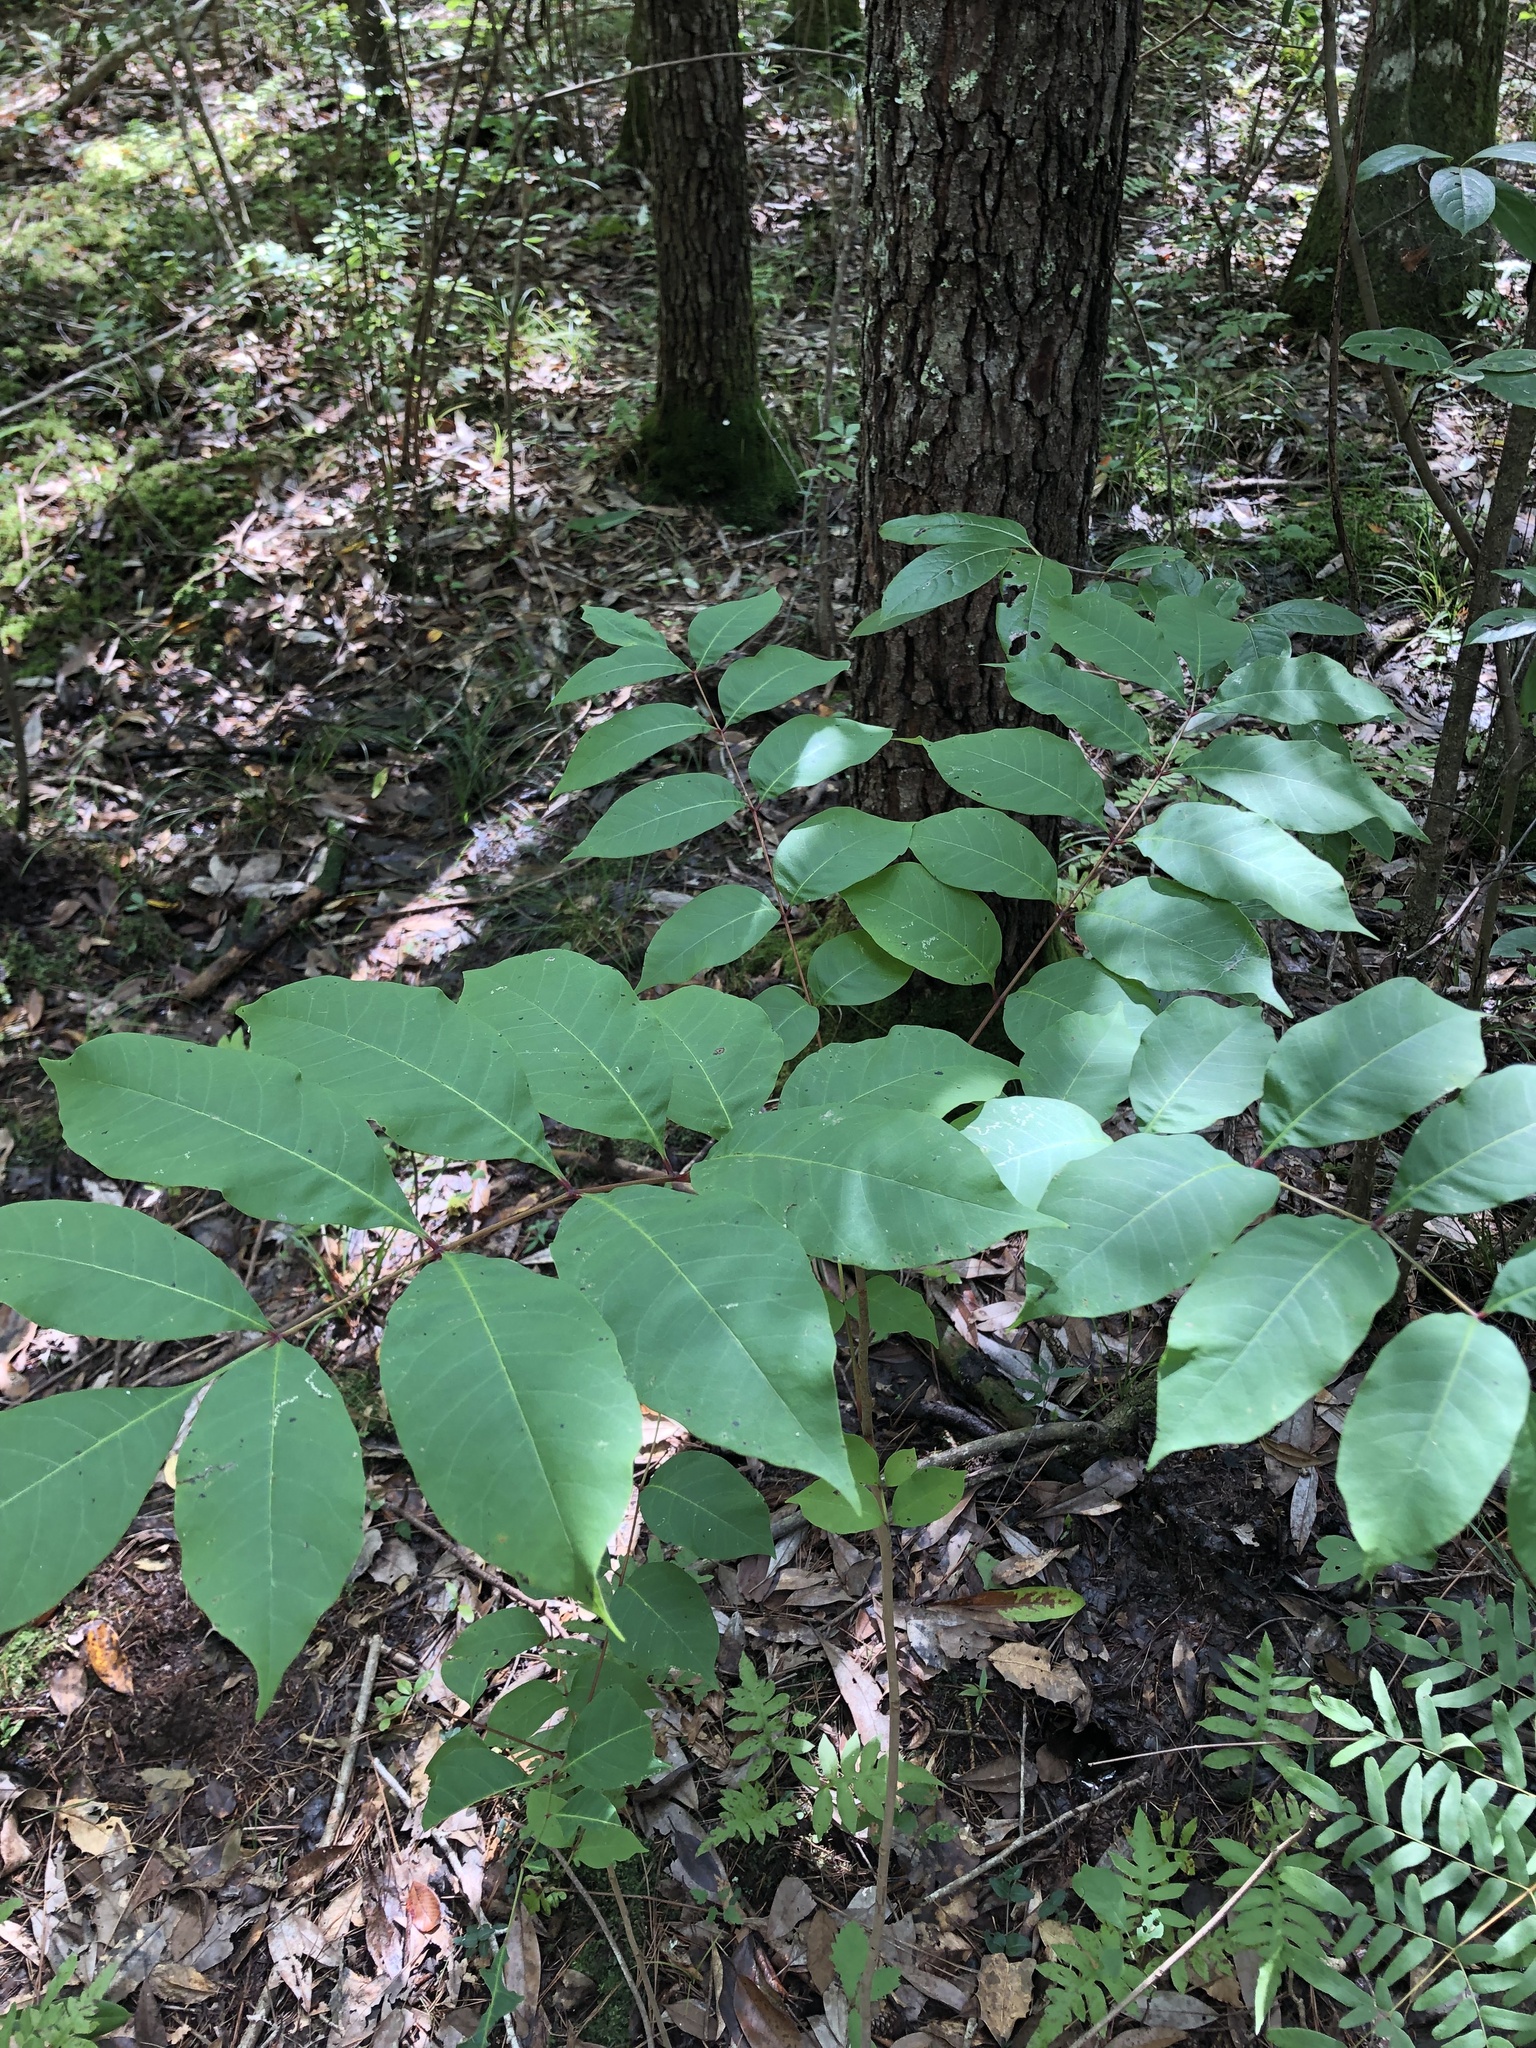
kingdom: Plantae
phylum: Tracheophyta
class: Magnoliopsida
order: Sapindales
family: Anacardiaceae
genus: Toxicodendron
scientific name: Toxicodendron vernix
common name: Poison sumac
